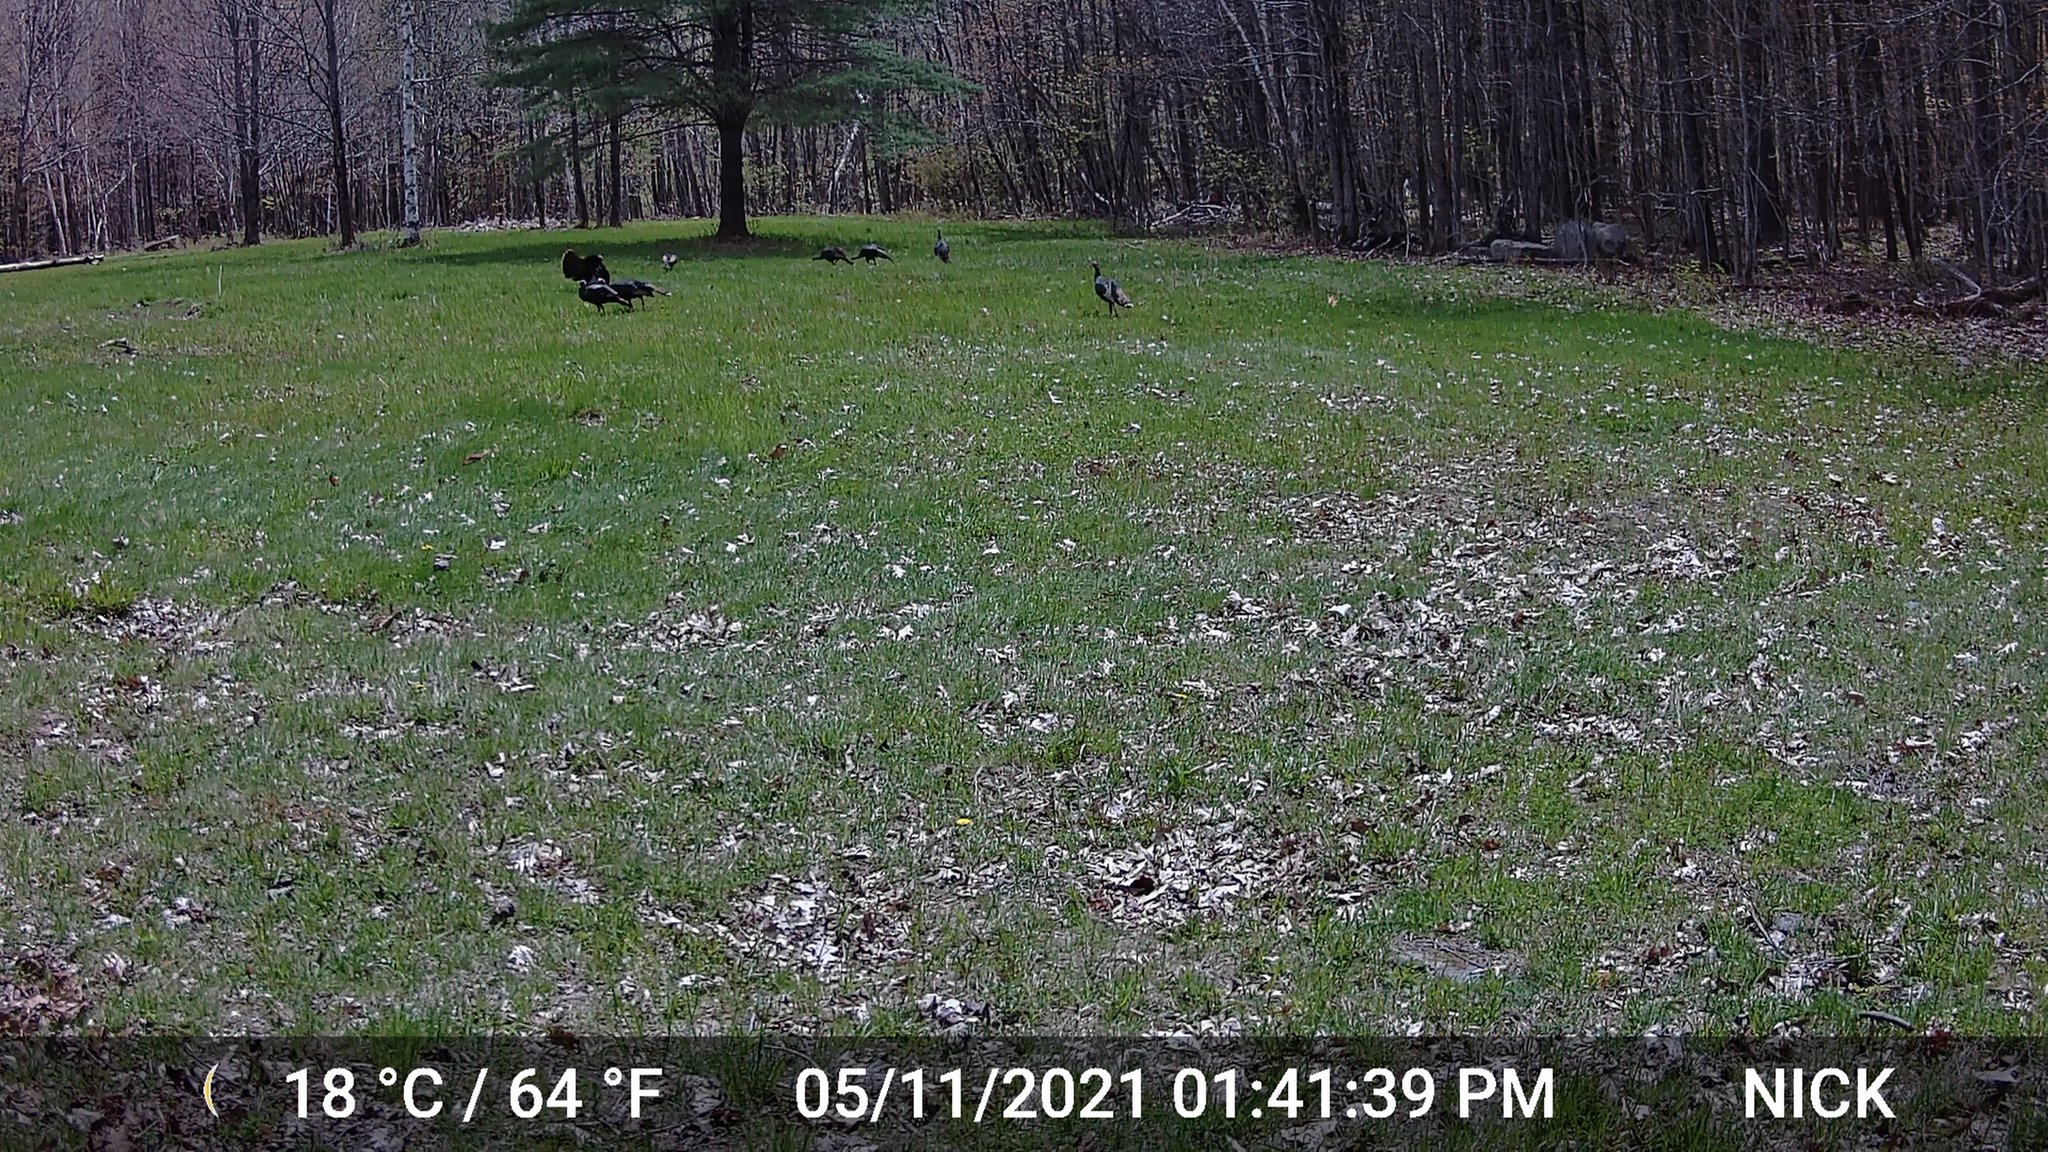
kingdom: Animalia
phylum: Chordata
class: Aves
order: Galliformes
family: Phasianidae
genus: Meleagris
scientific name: Meleagris gallopavo
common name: Wild turkey
